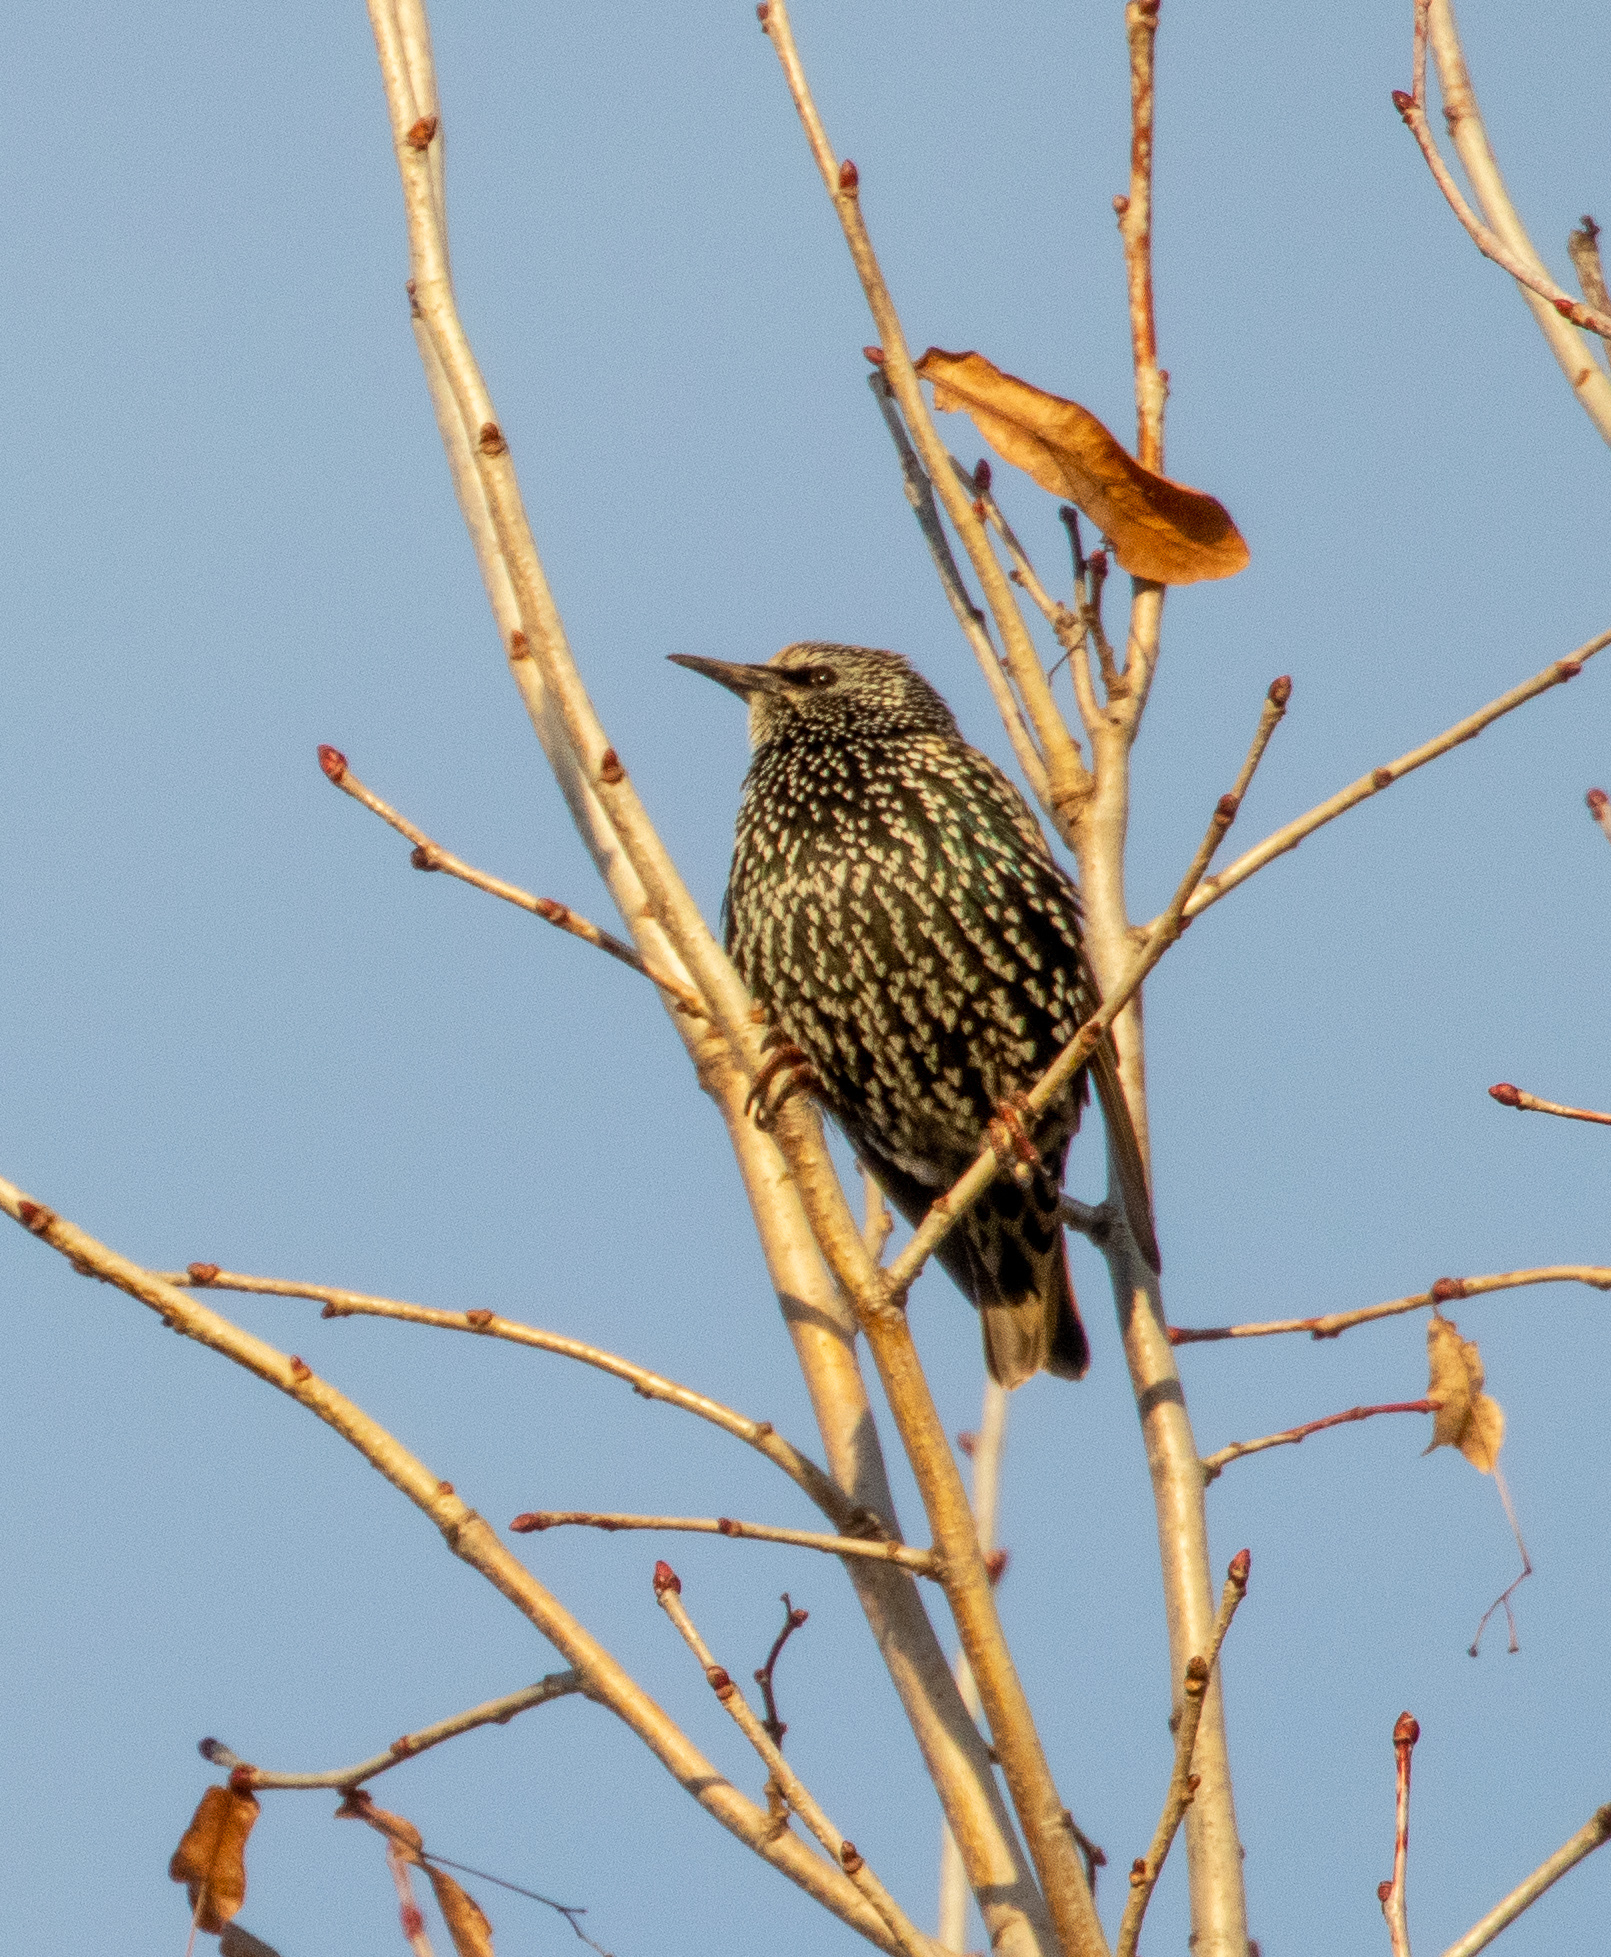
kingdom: Animalia
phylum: Chordata
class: Aves
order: Passeriformes
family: Sturnidae
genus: Sturnus
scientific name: Sturnus vulgaris
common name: Common starling
